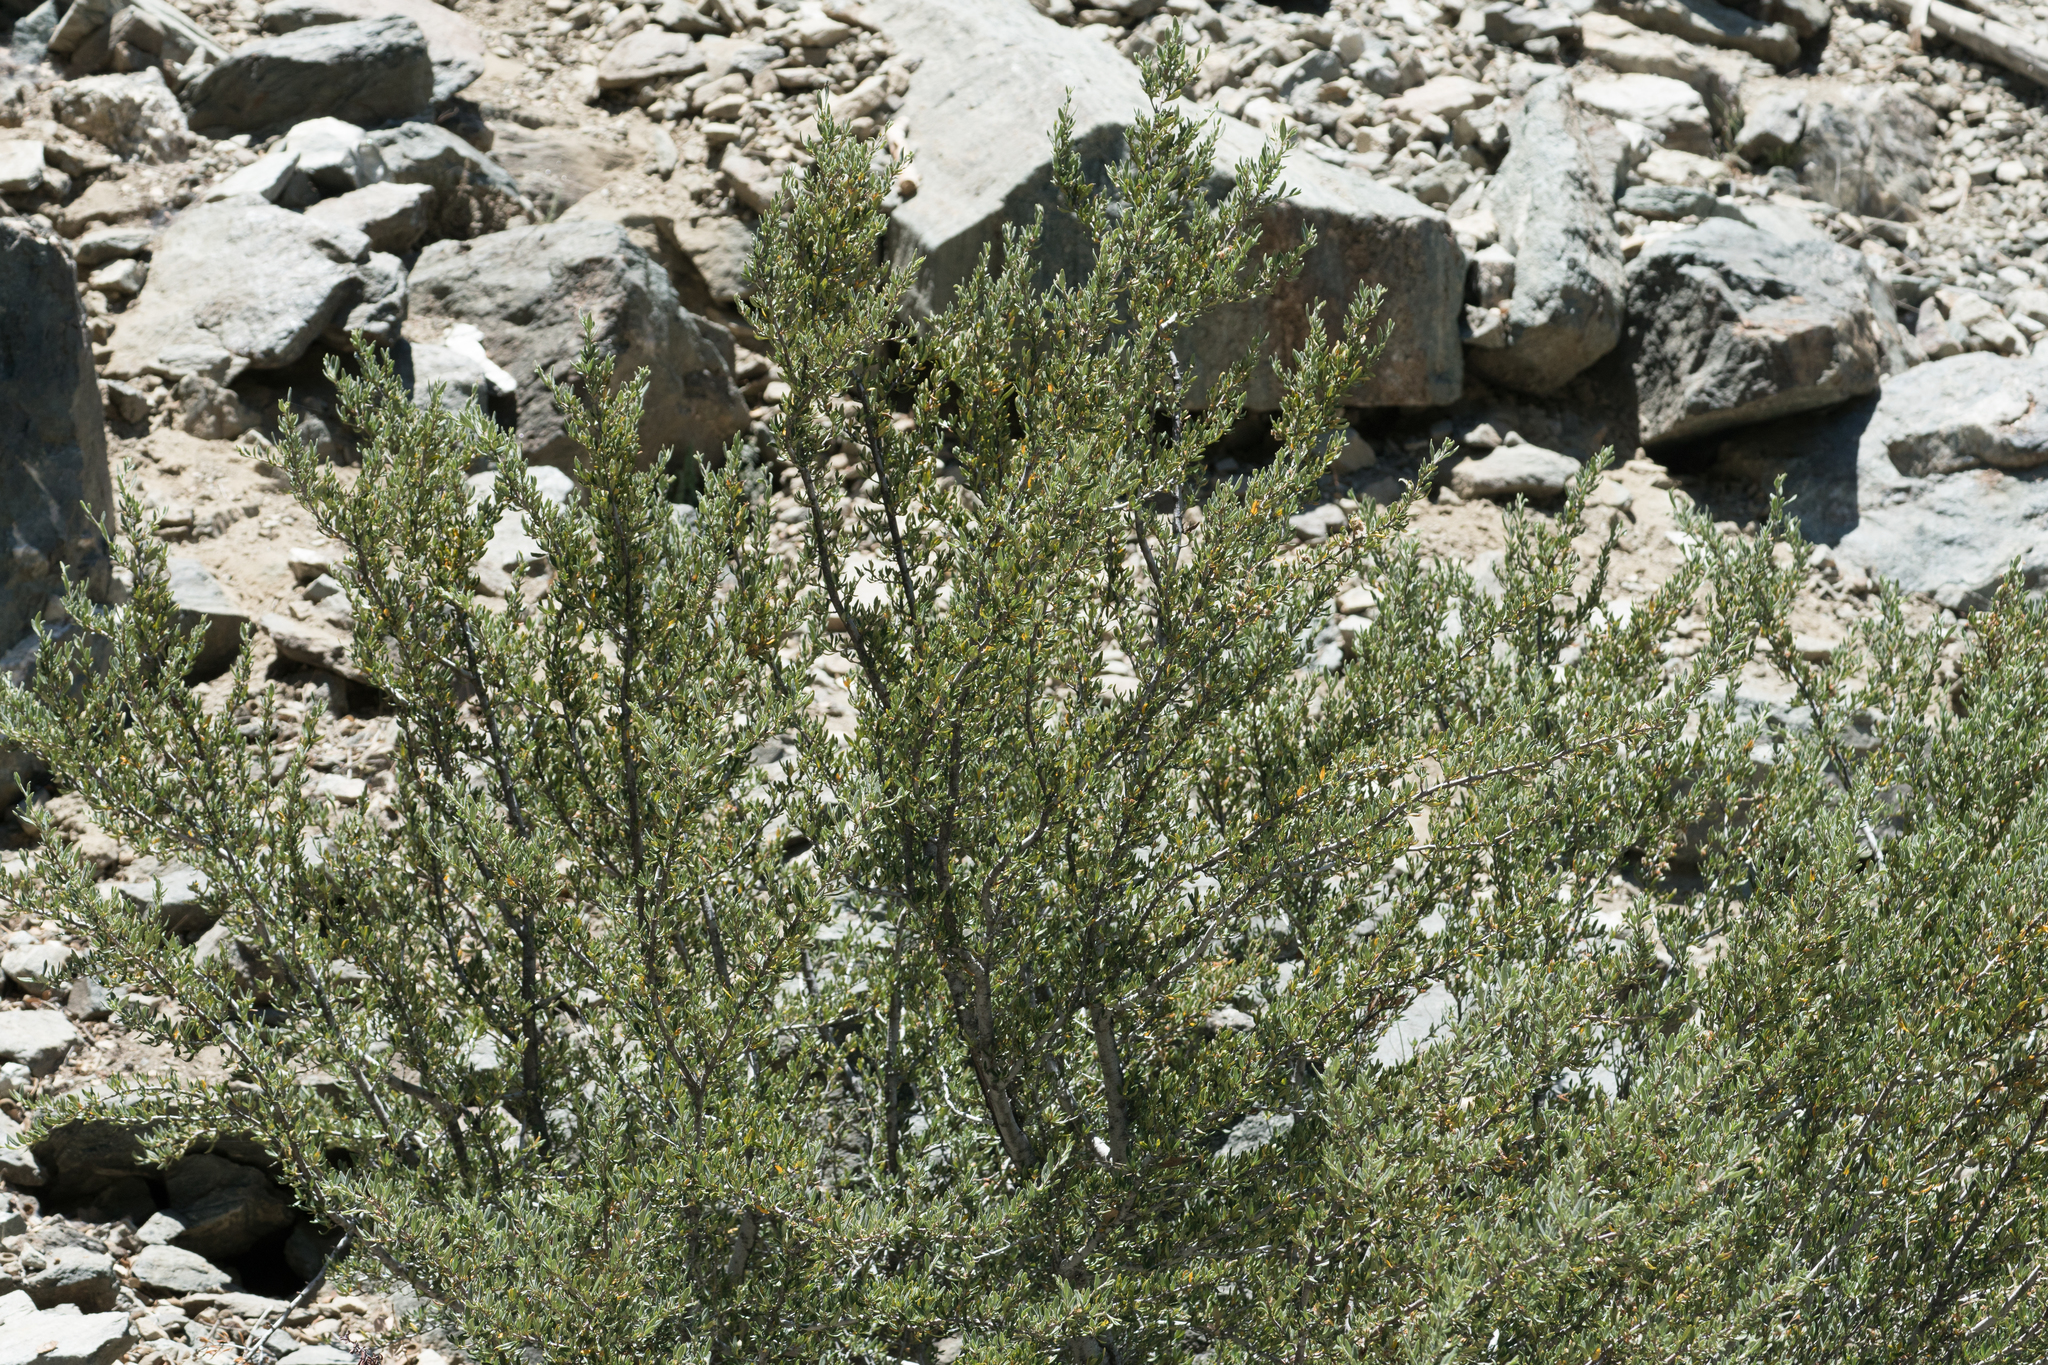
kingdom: Plantae
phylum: Tracheophyta
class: Magnoliopsida
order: Rosales
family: Rosaceae
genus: Cercocarpus
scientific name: Cercocarpus ledifolius
